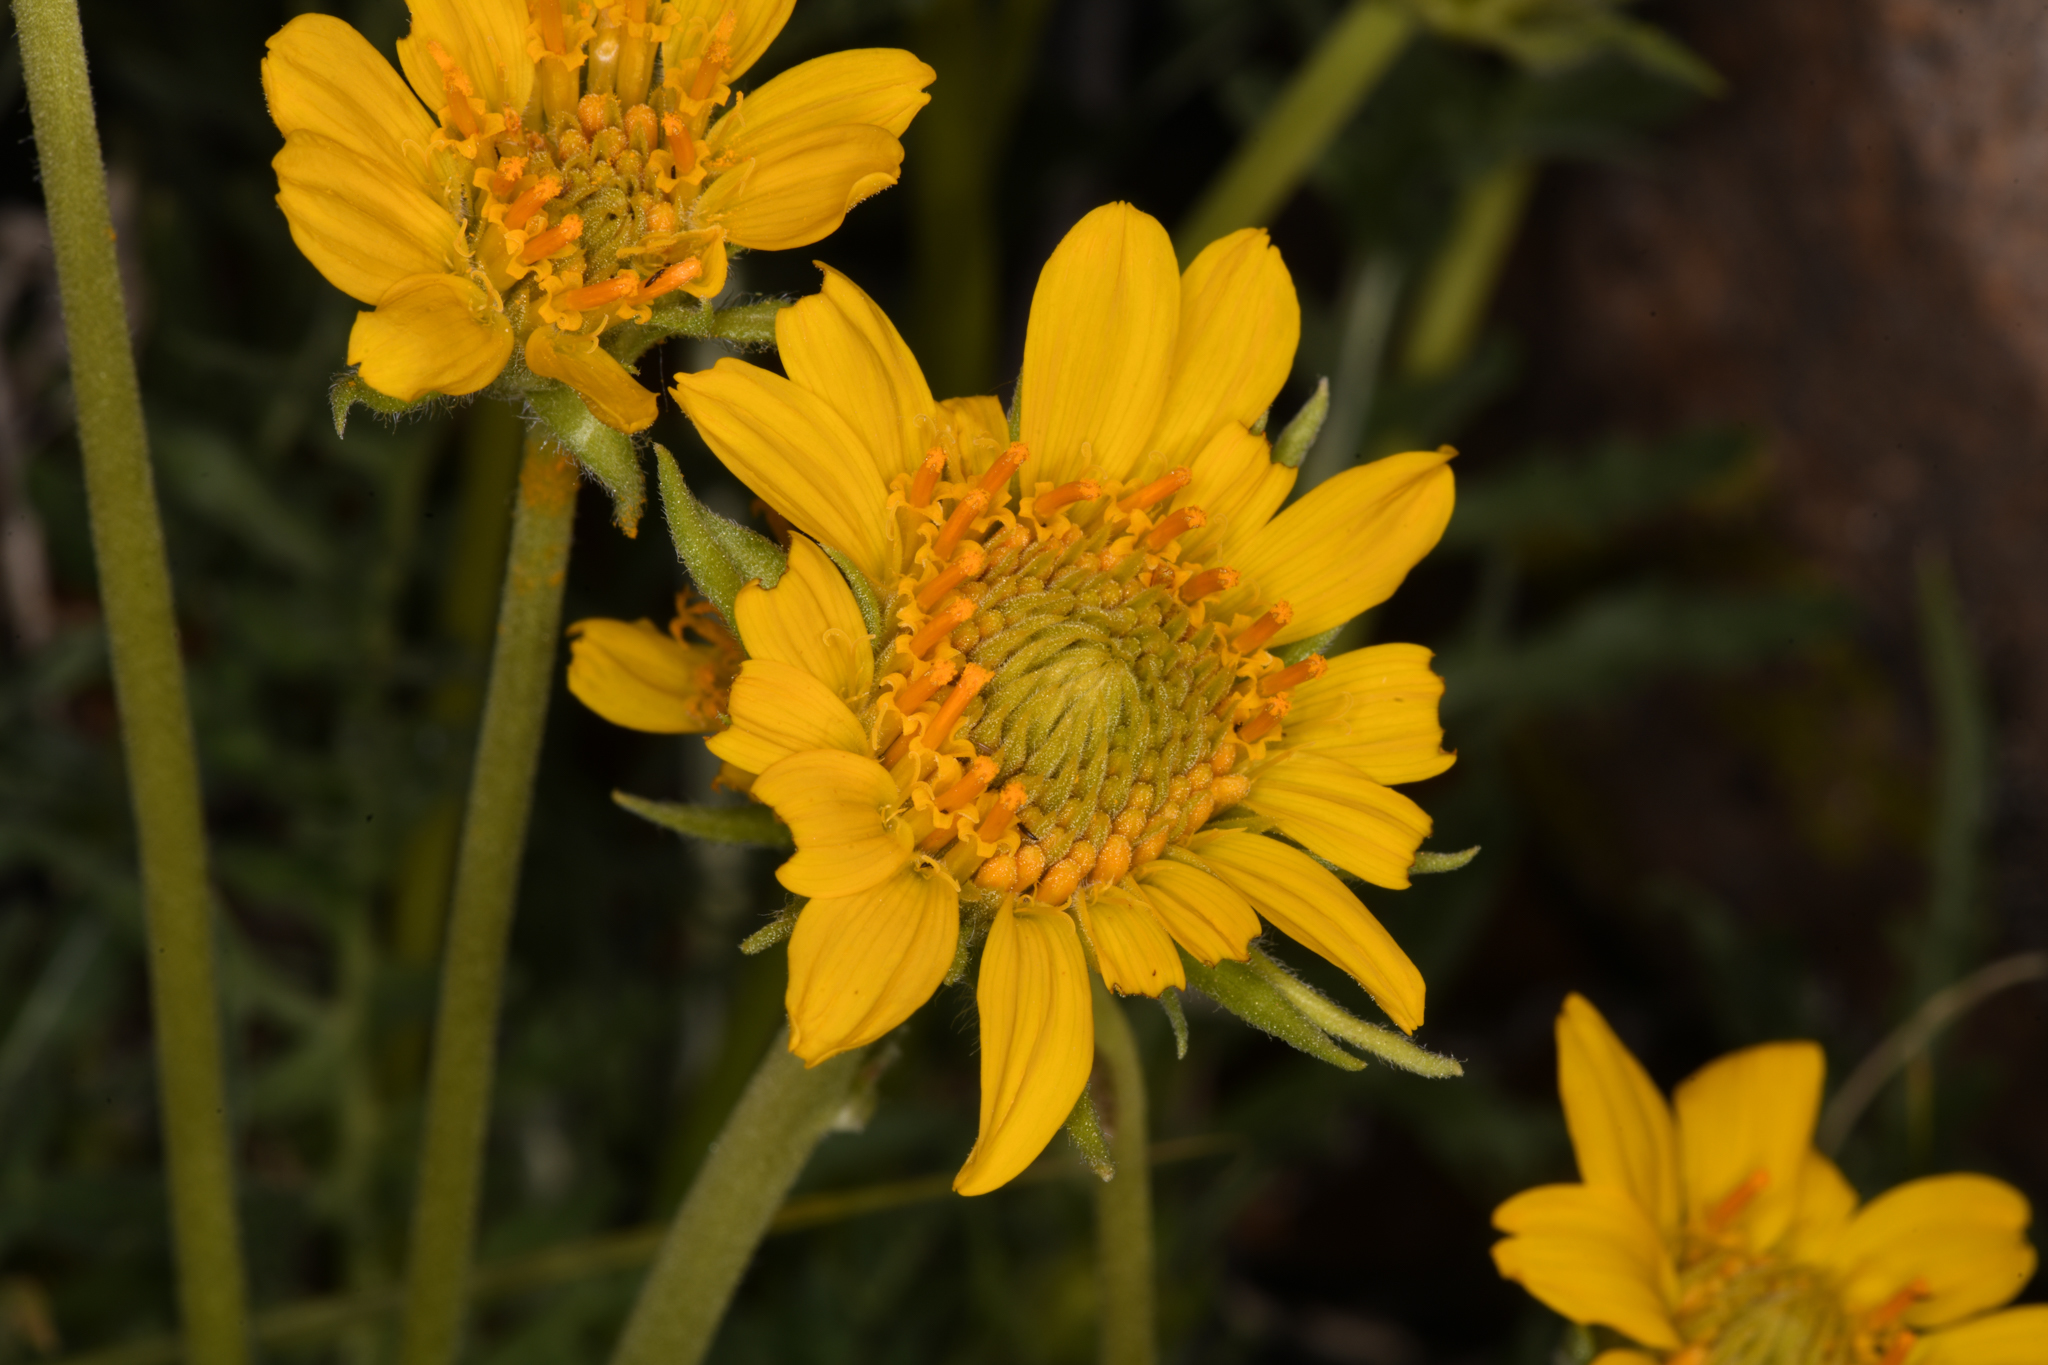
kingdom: Plantae
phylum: Tracheophyta
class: Magnoliopsida
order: Asterales
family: Asteraceae
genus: Balsamorhiza
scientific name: Balsamorhiza hookeri
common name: Hooker's balsamroot
